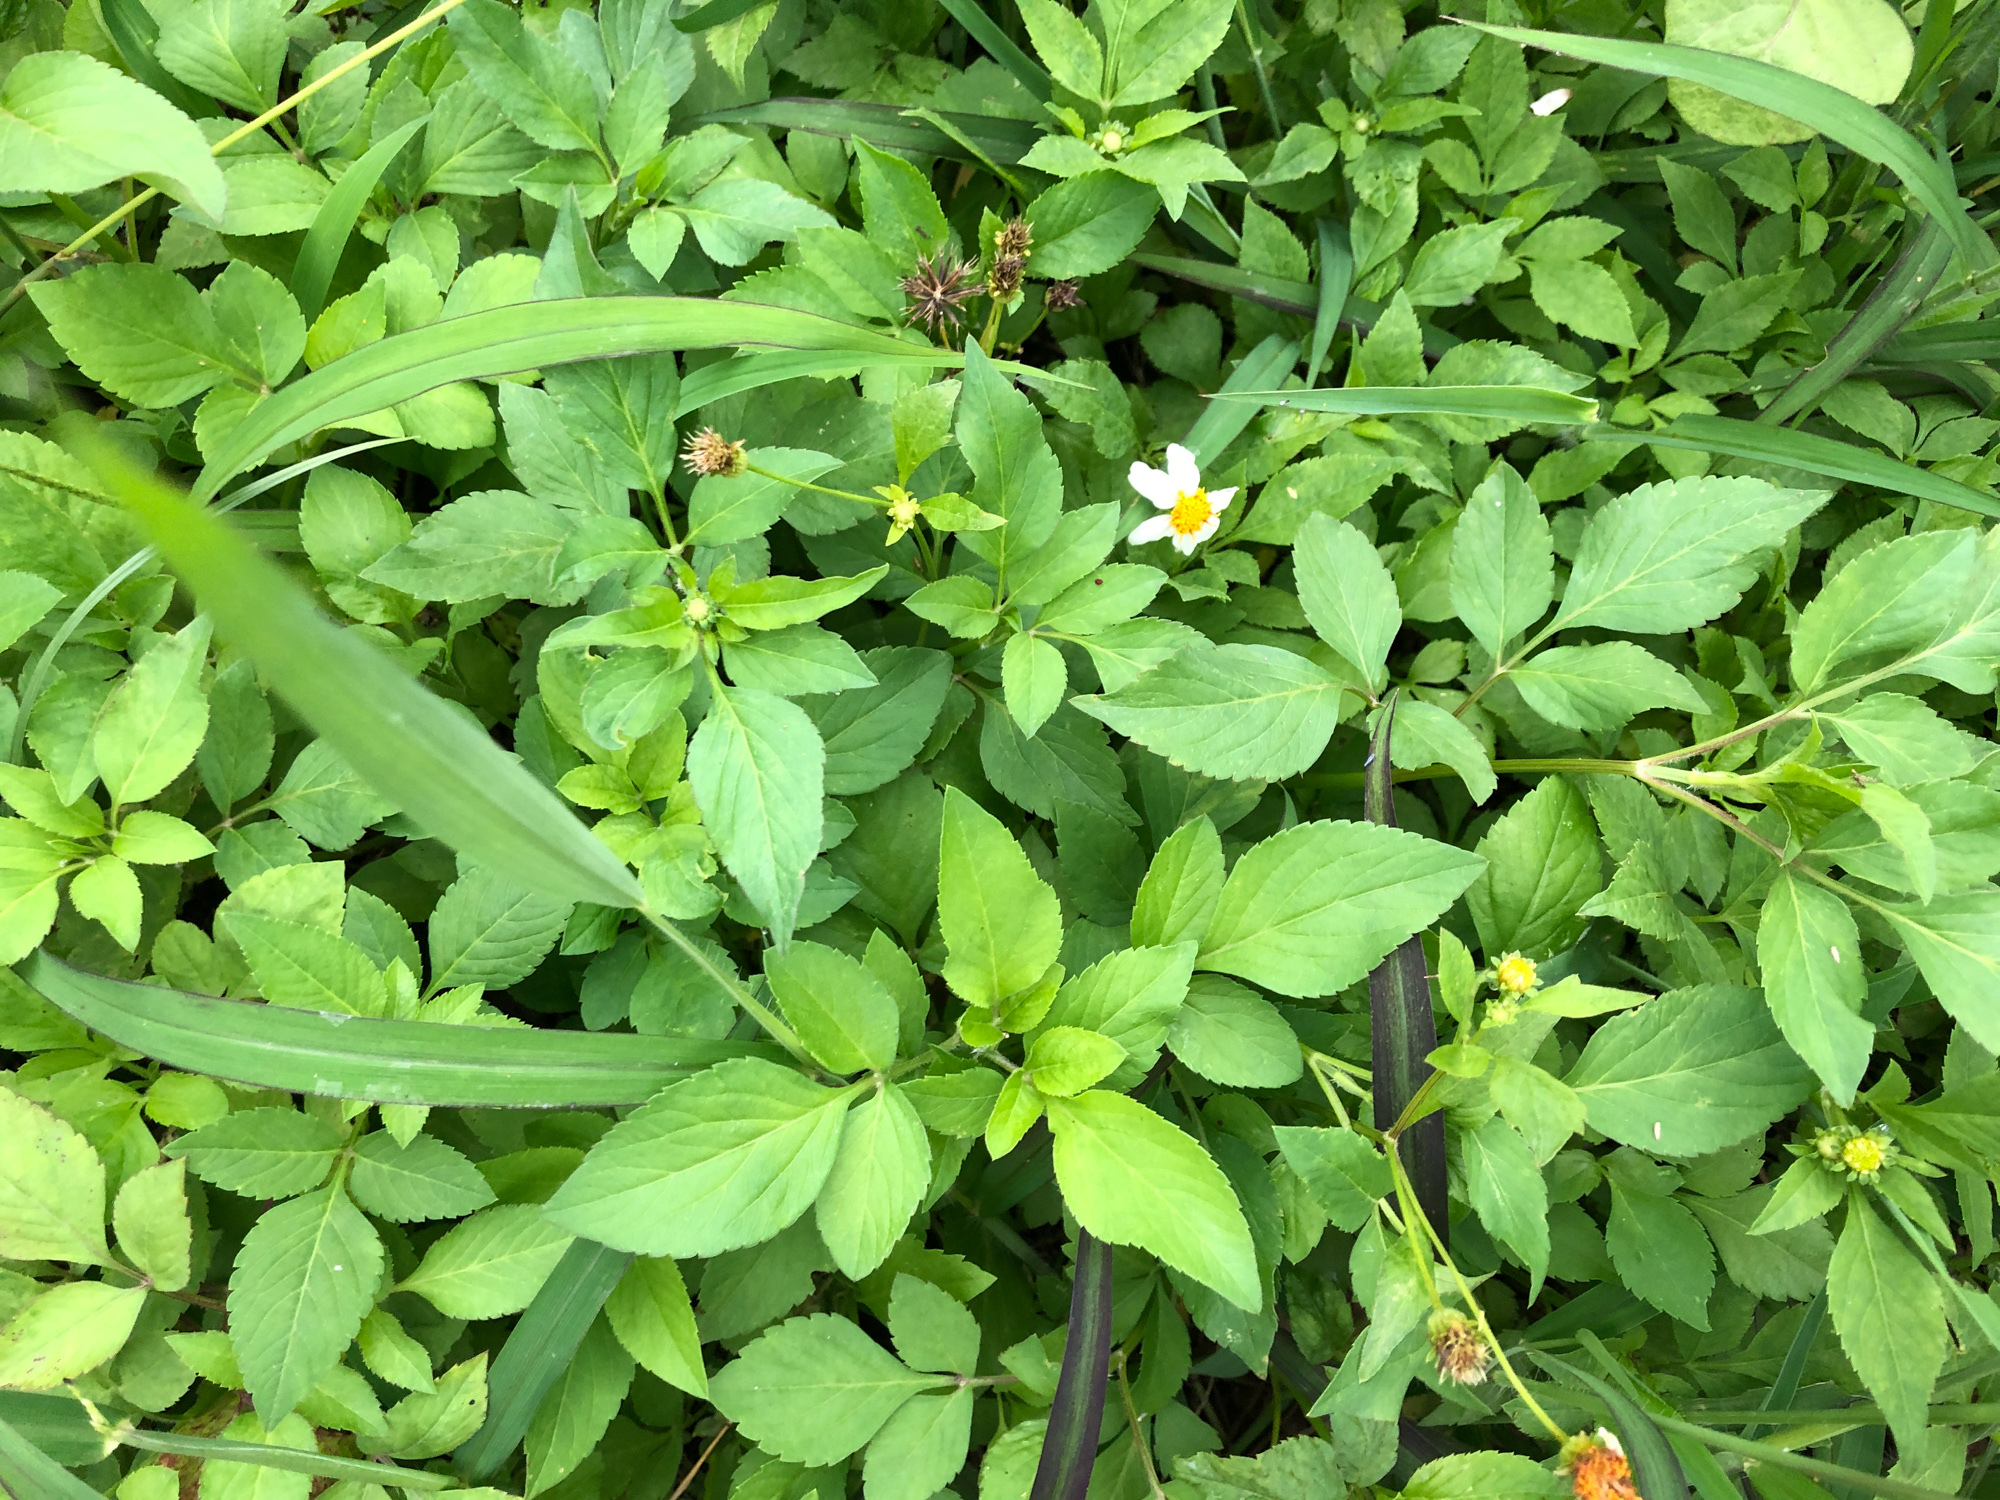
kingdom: Plantae
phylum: Tracheophyta
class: Magnoliopsida
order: Asterales
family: Asteraceae
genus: Bidens
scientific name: Bidens alba
